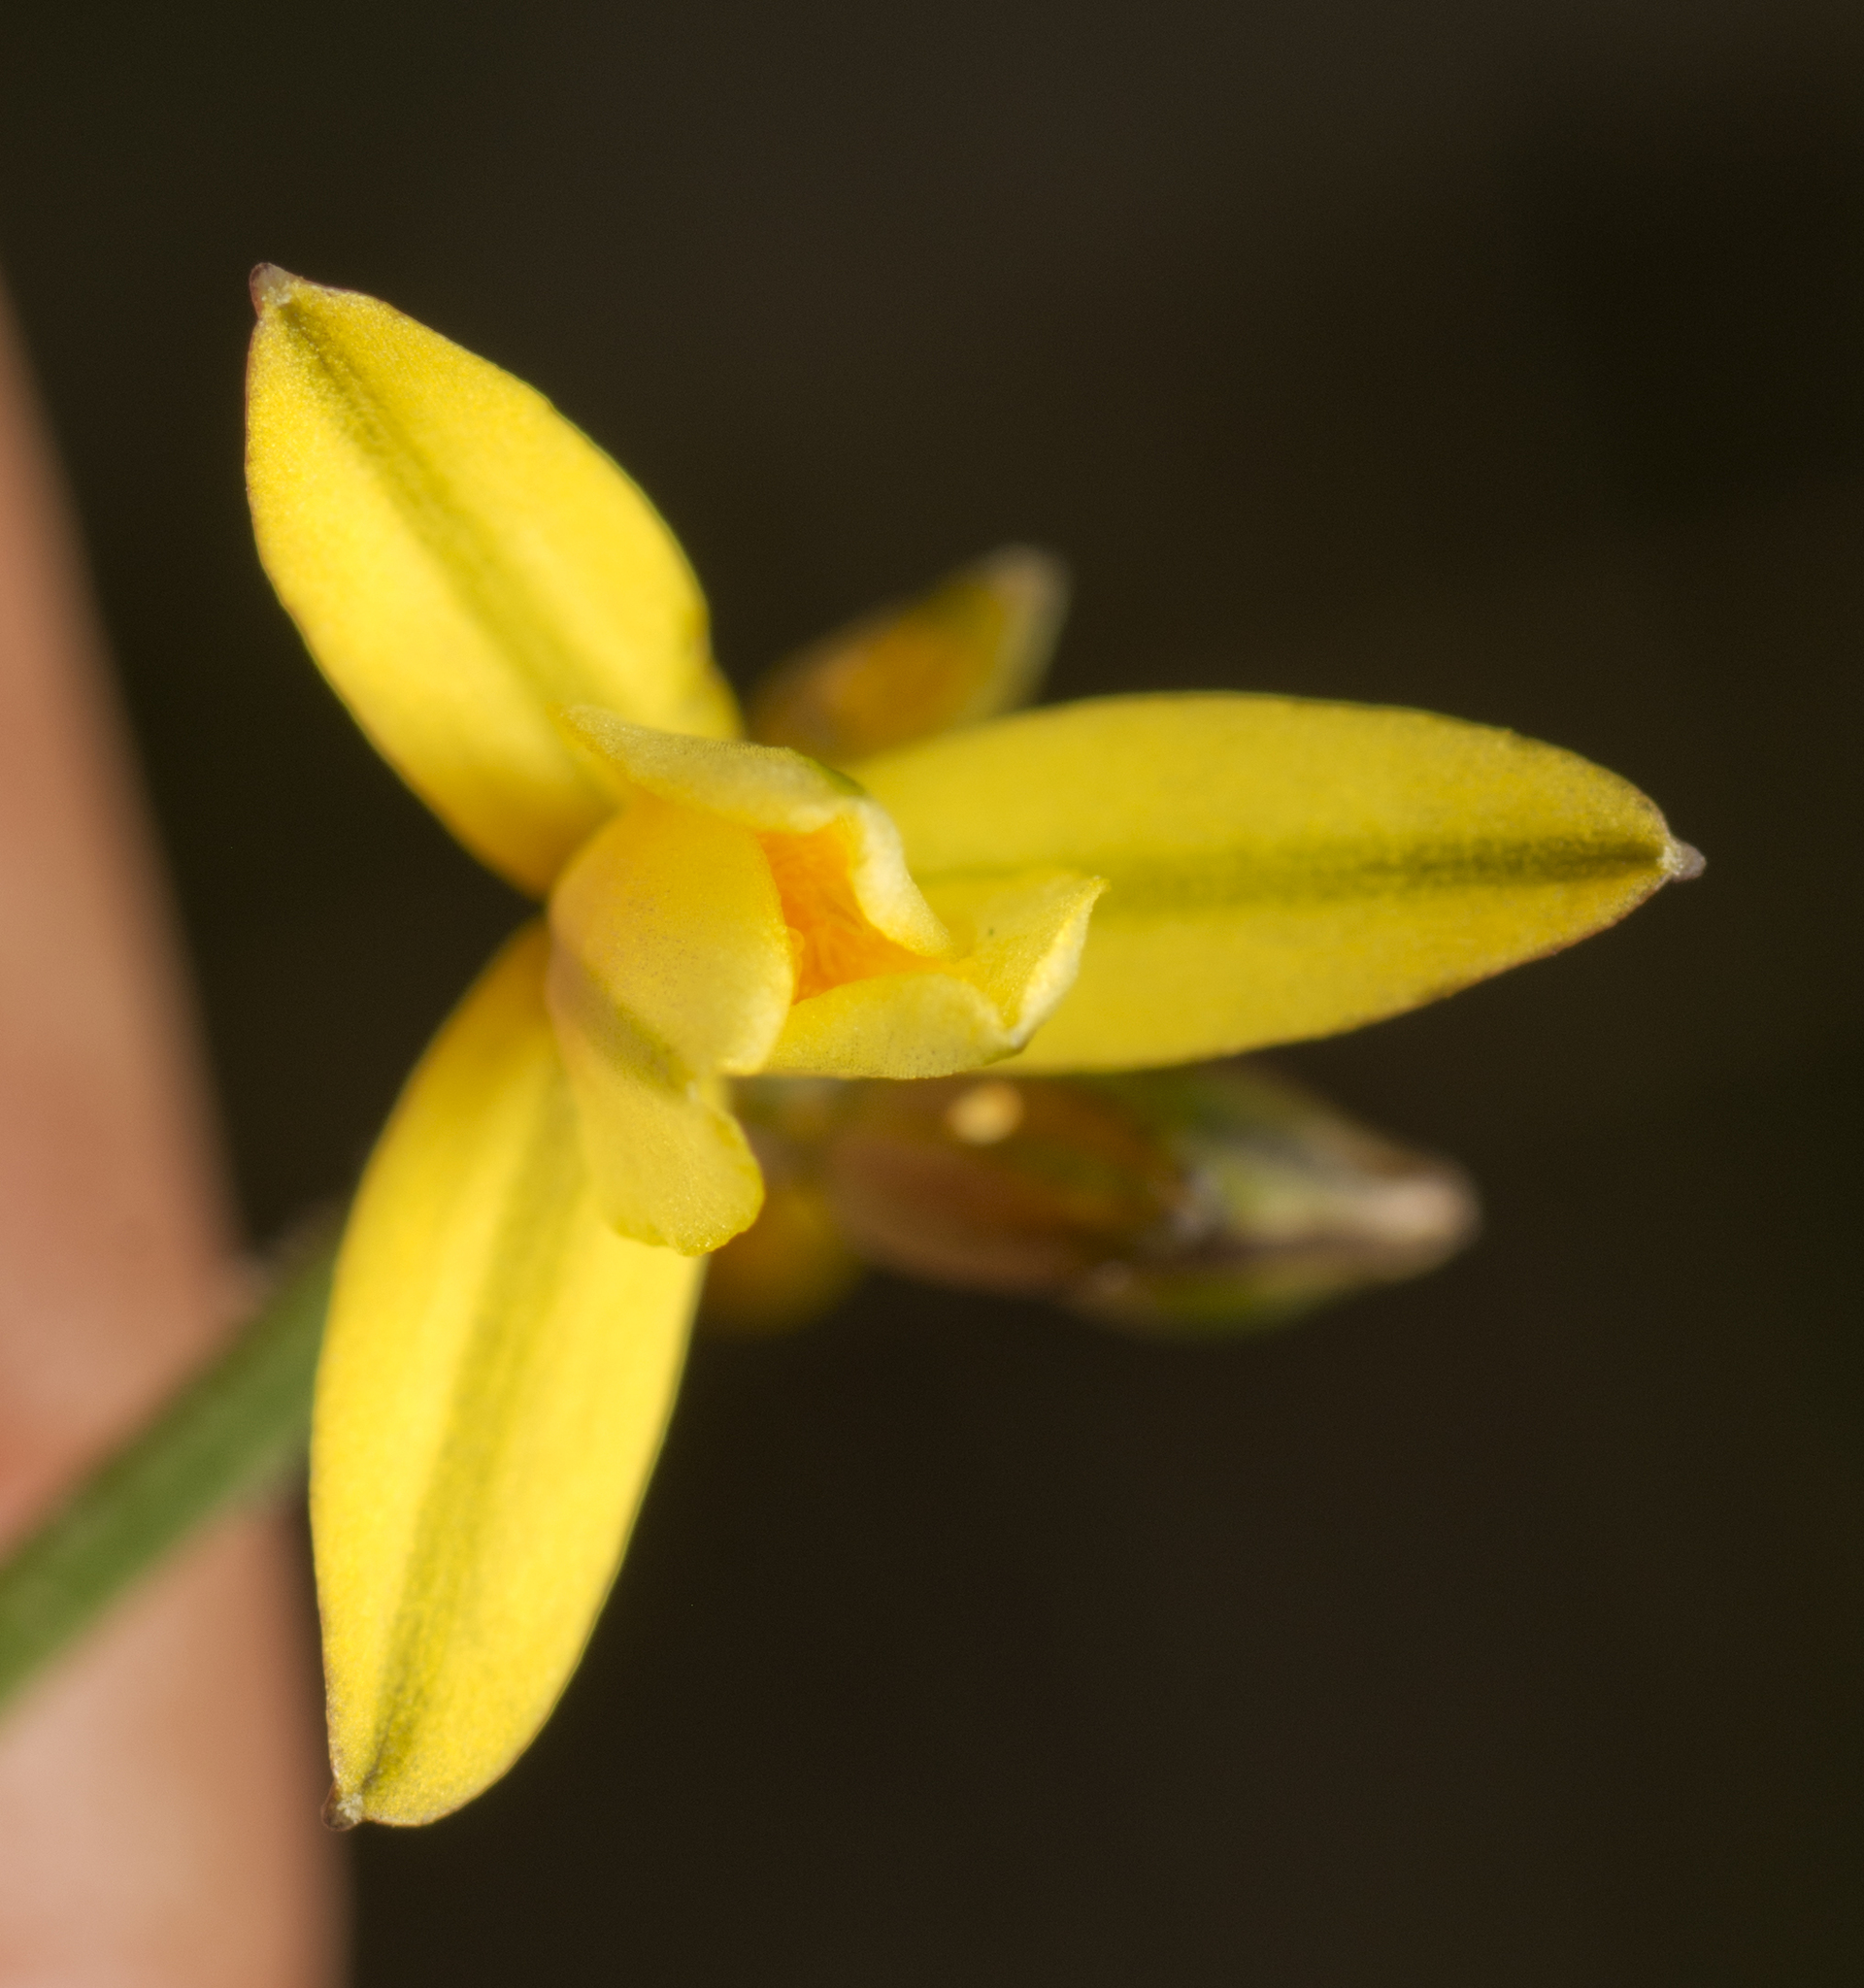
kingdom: Plantae
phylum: Tracheophyta
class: Liliopsida
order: Asparagales
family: Asphodelaceae
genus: Tricoryne
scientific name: Tricoryne muricata
